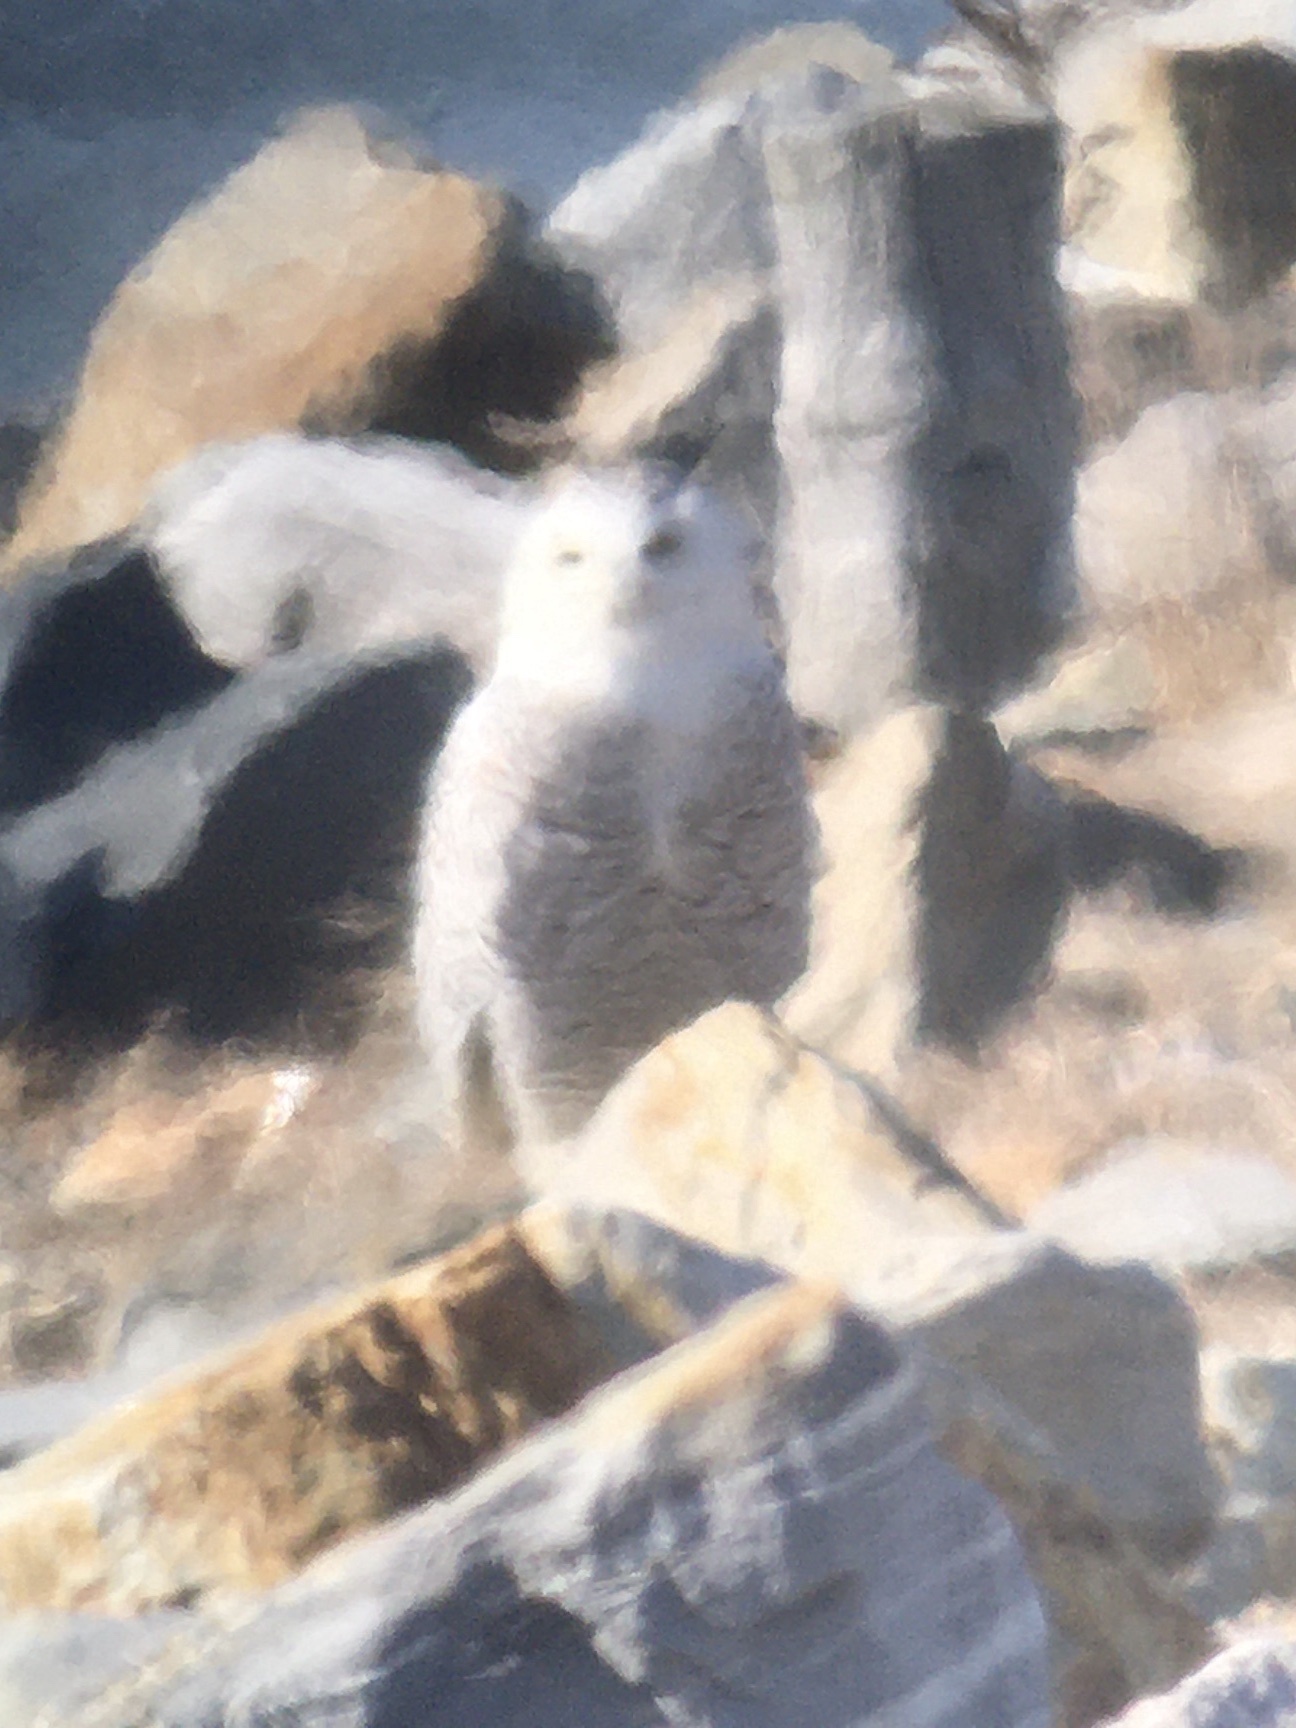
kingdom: Animalia
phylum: Chordata
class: Aves
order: Strigiformes
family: Strigidae
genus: Bubo
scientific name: Bubo scandiacus
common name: Snowy owl
